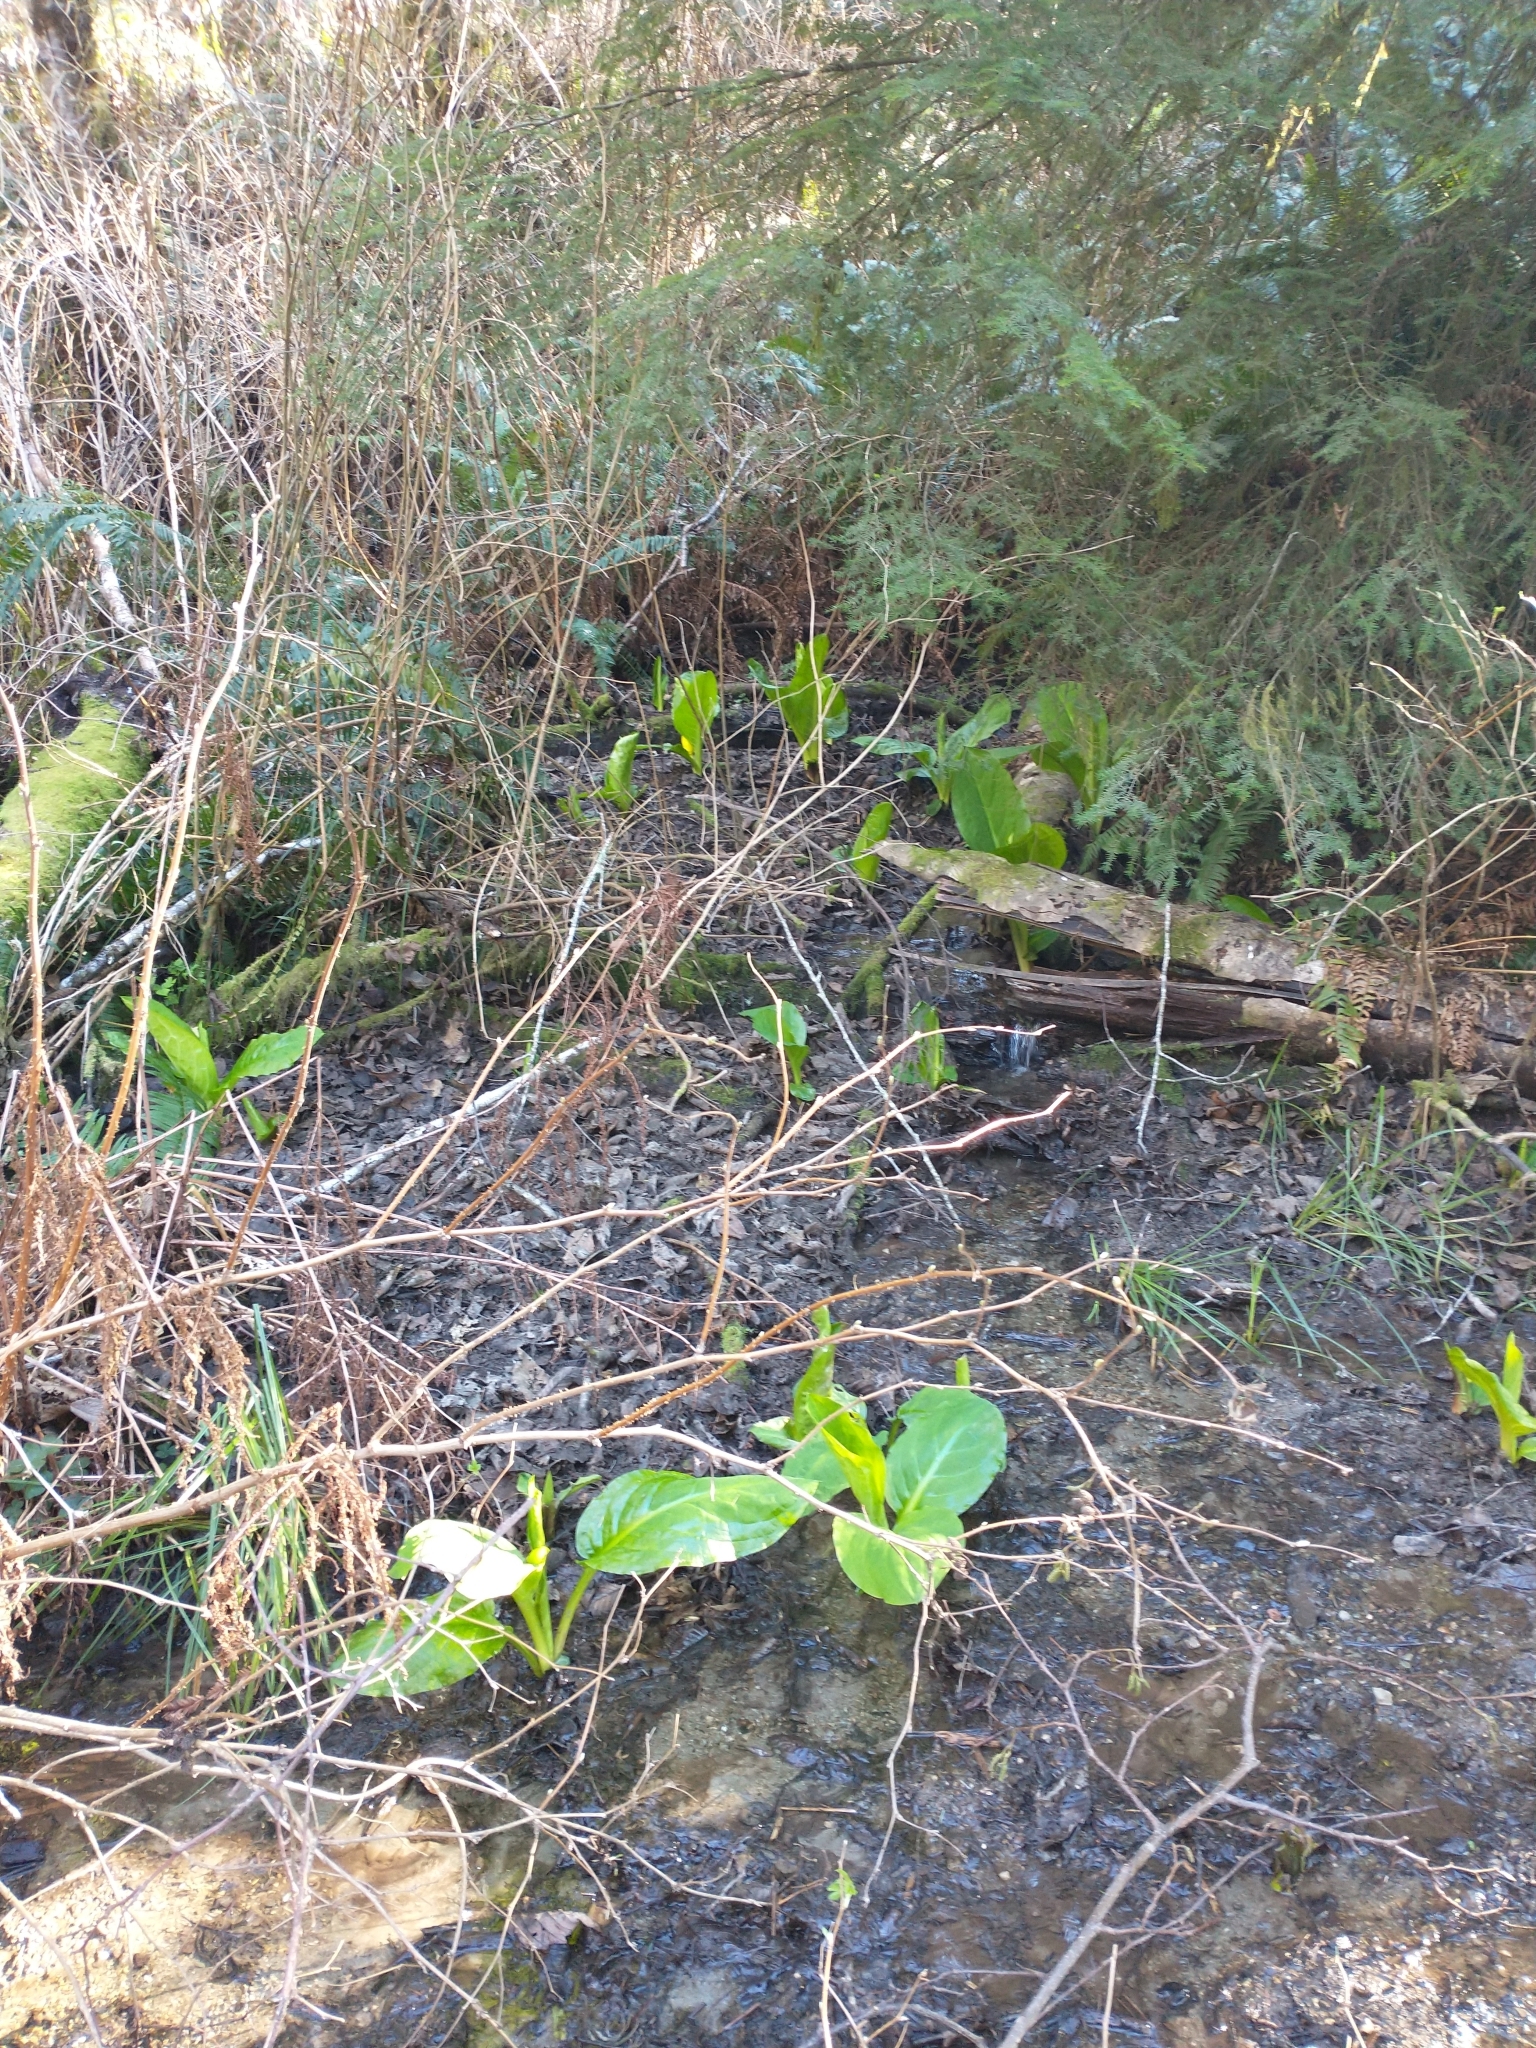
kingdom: Plantae
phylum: Tracheophyta
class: Liliopsida
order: Alismatales
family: Araceae
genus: Lysichiton
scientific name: Lysichiton americanus
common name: American skunk cabbage
